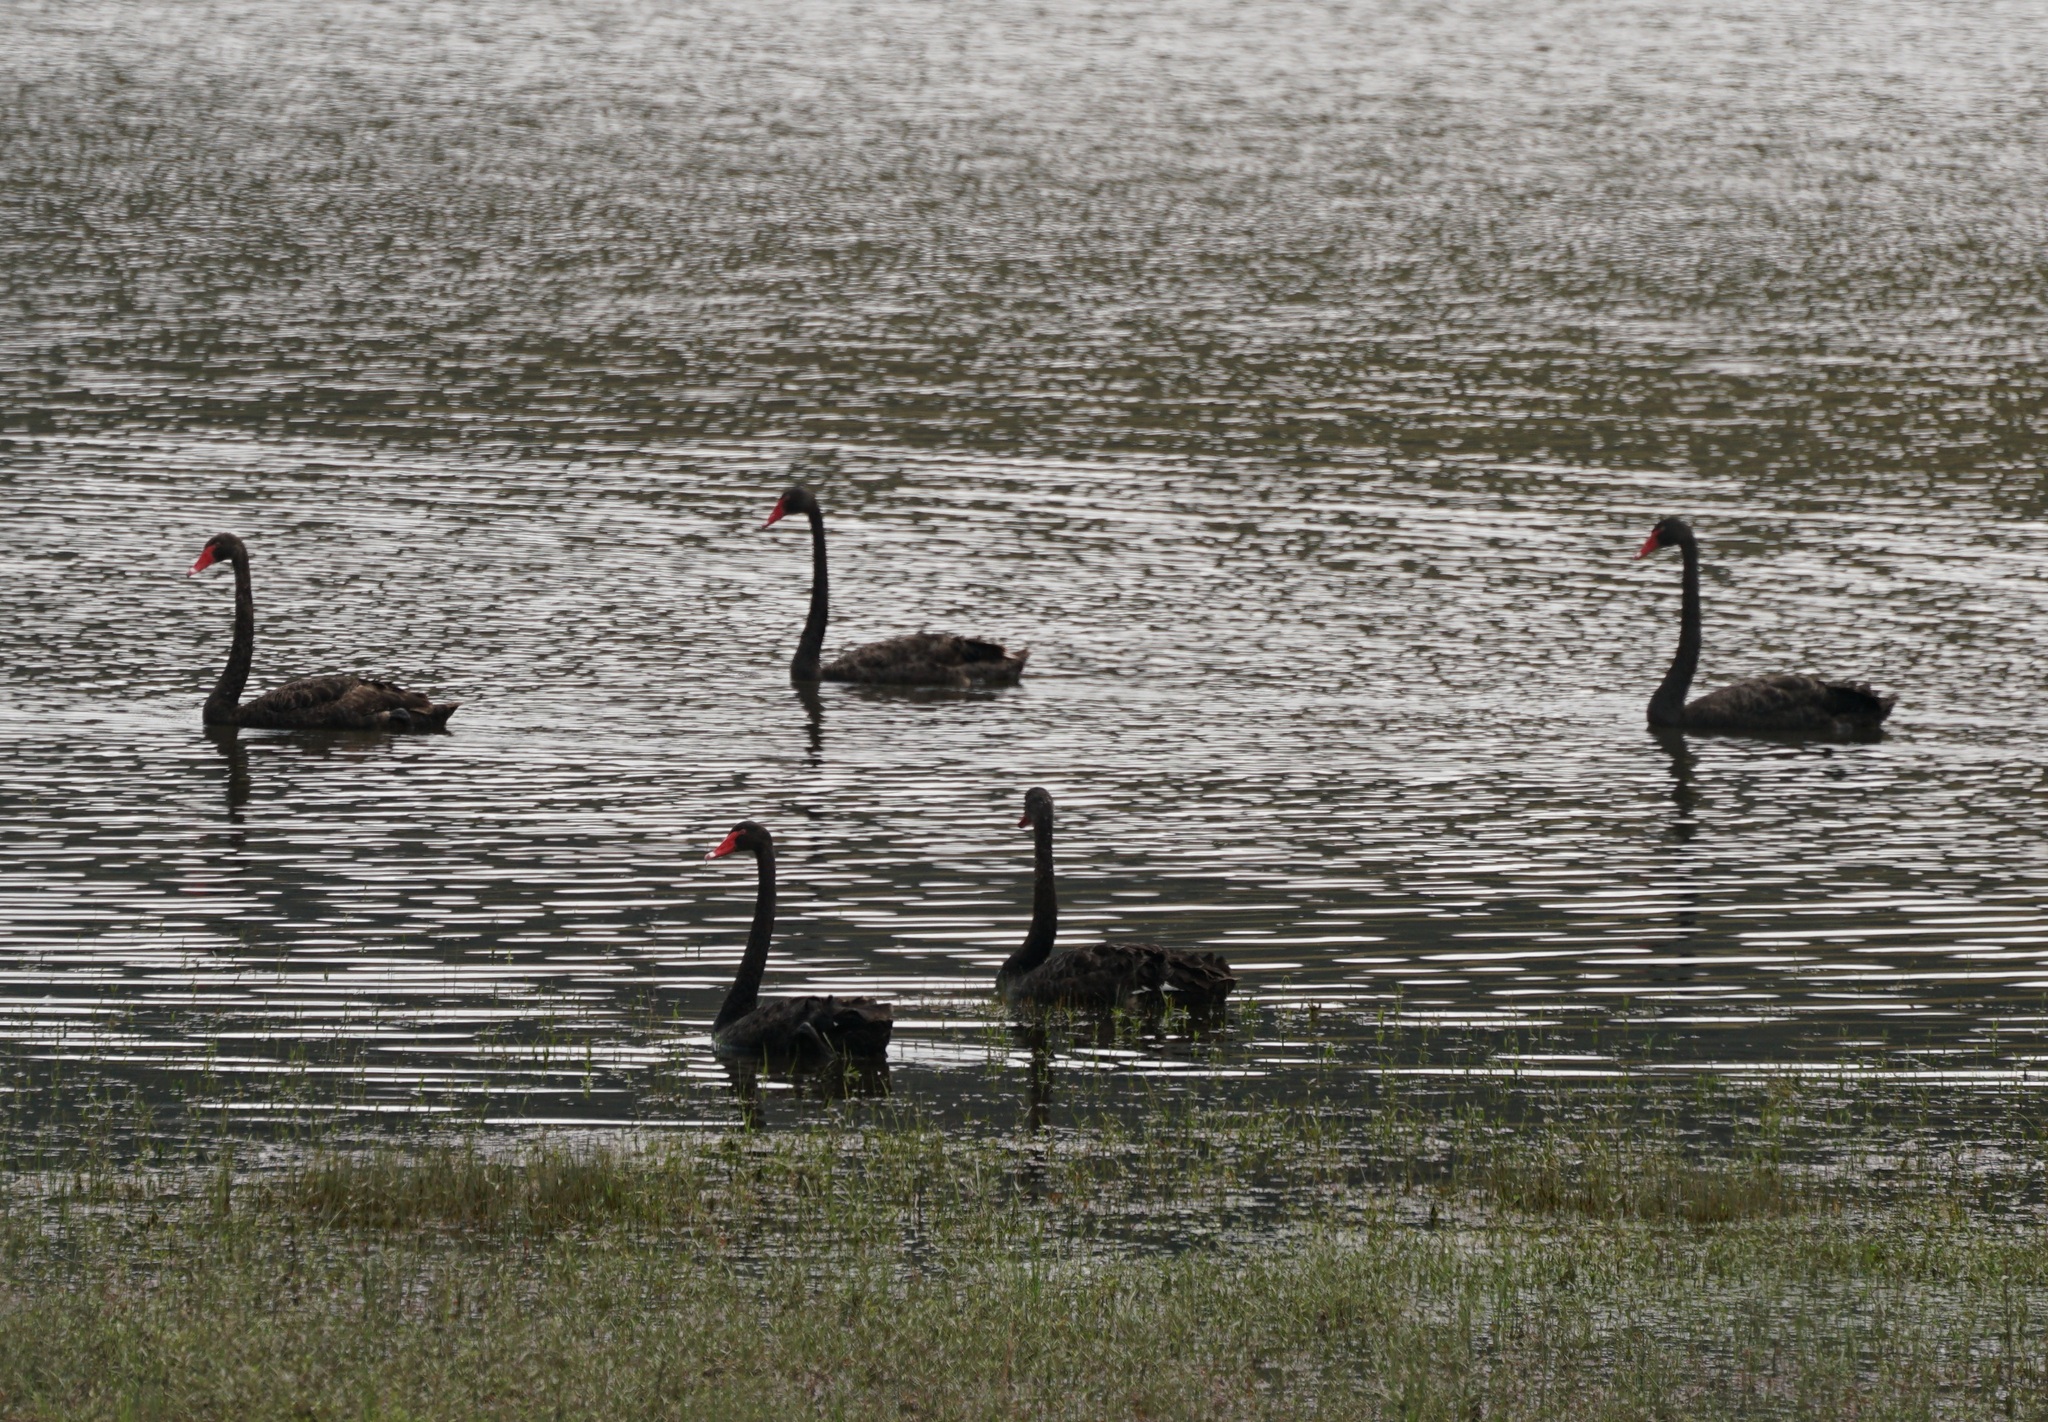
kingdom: Animalia
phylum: Chordata
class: Aves
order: Anseriformes
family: Anatidae
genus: Cygnus
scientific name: Cygnus atratus
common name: Black swan
